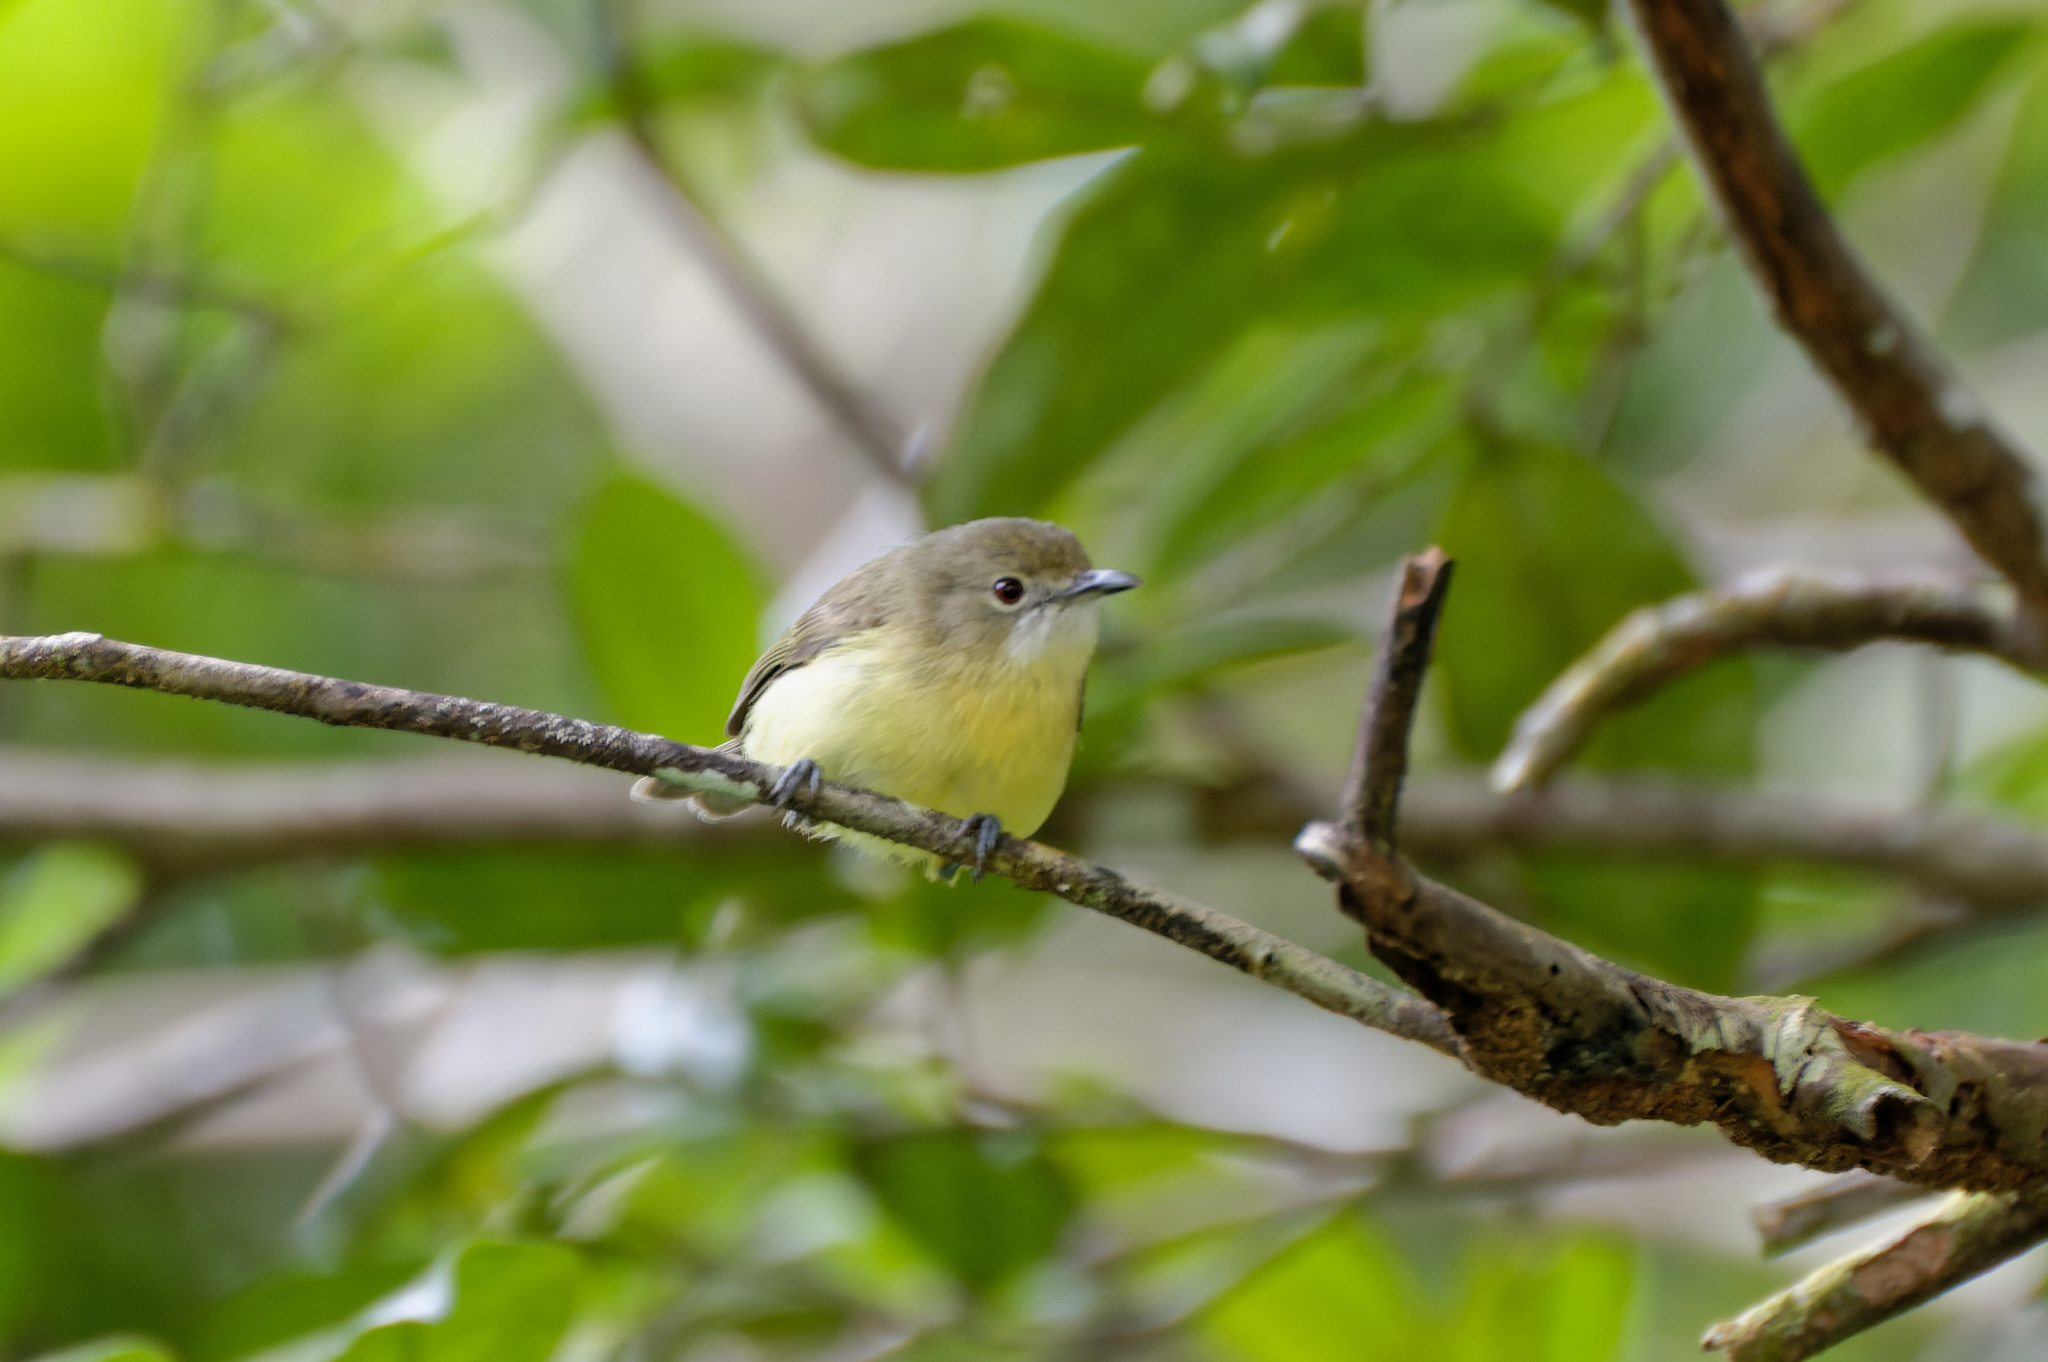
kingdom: Animalia
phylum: Chordata
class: Aves
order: Passeriformes
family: Acanthizidae
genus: Gerygone
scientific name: Gerygone palpebrosa
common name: Fairy gerygone
